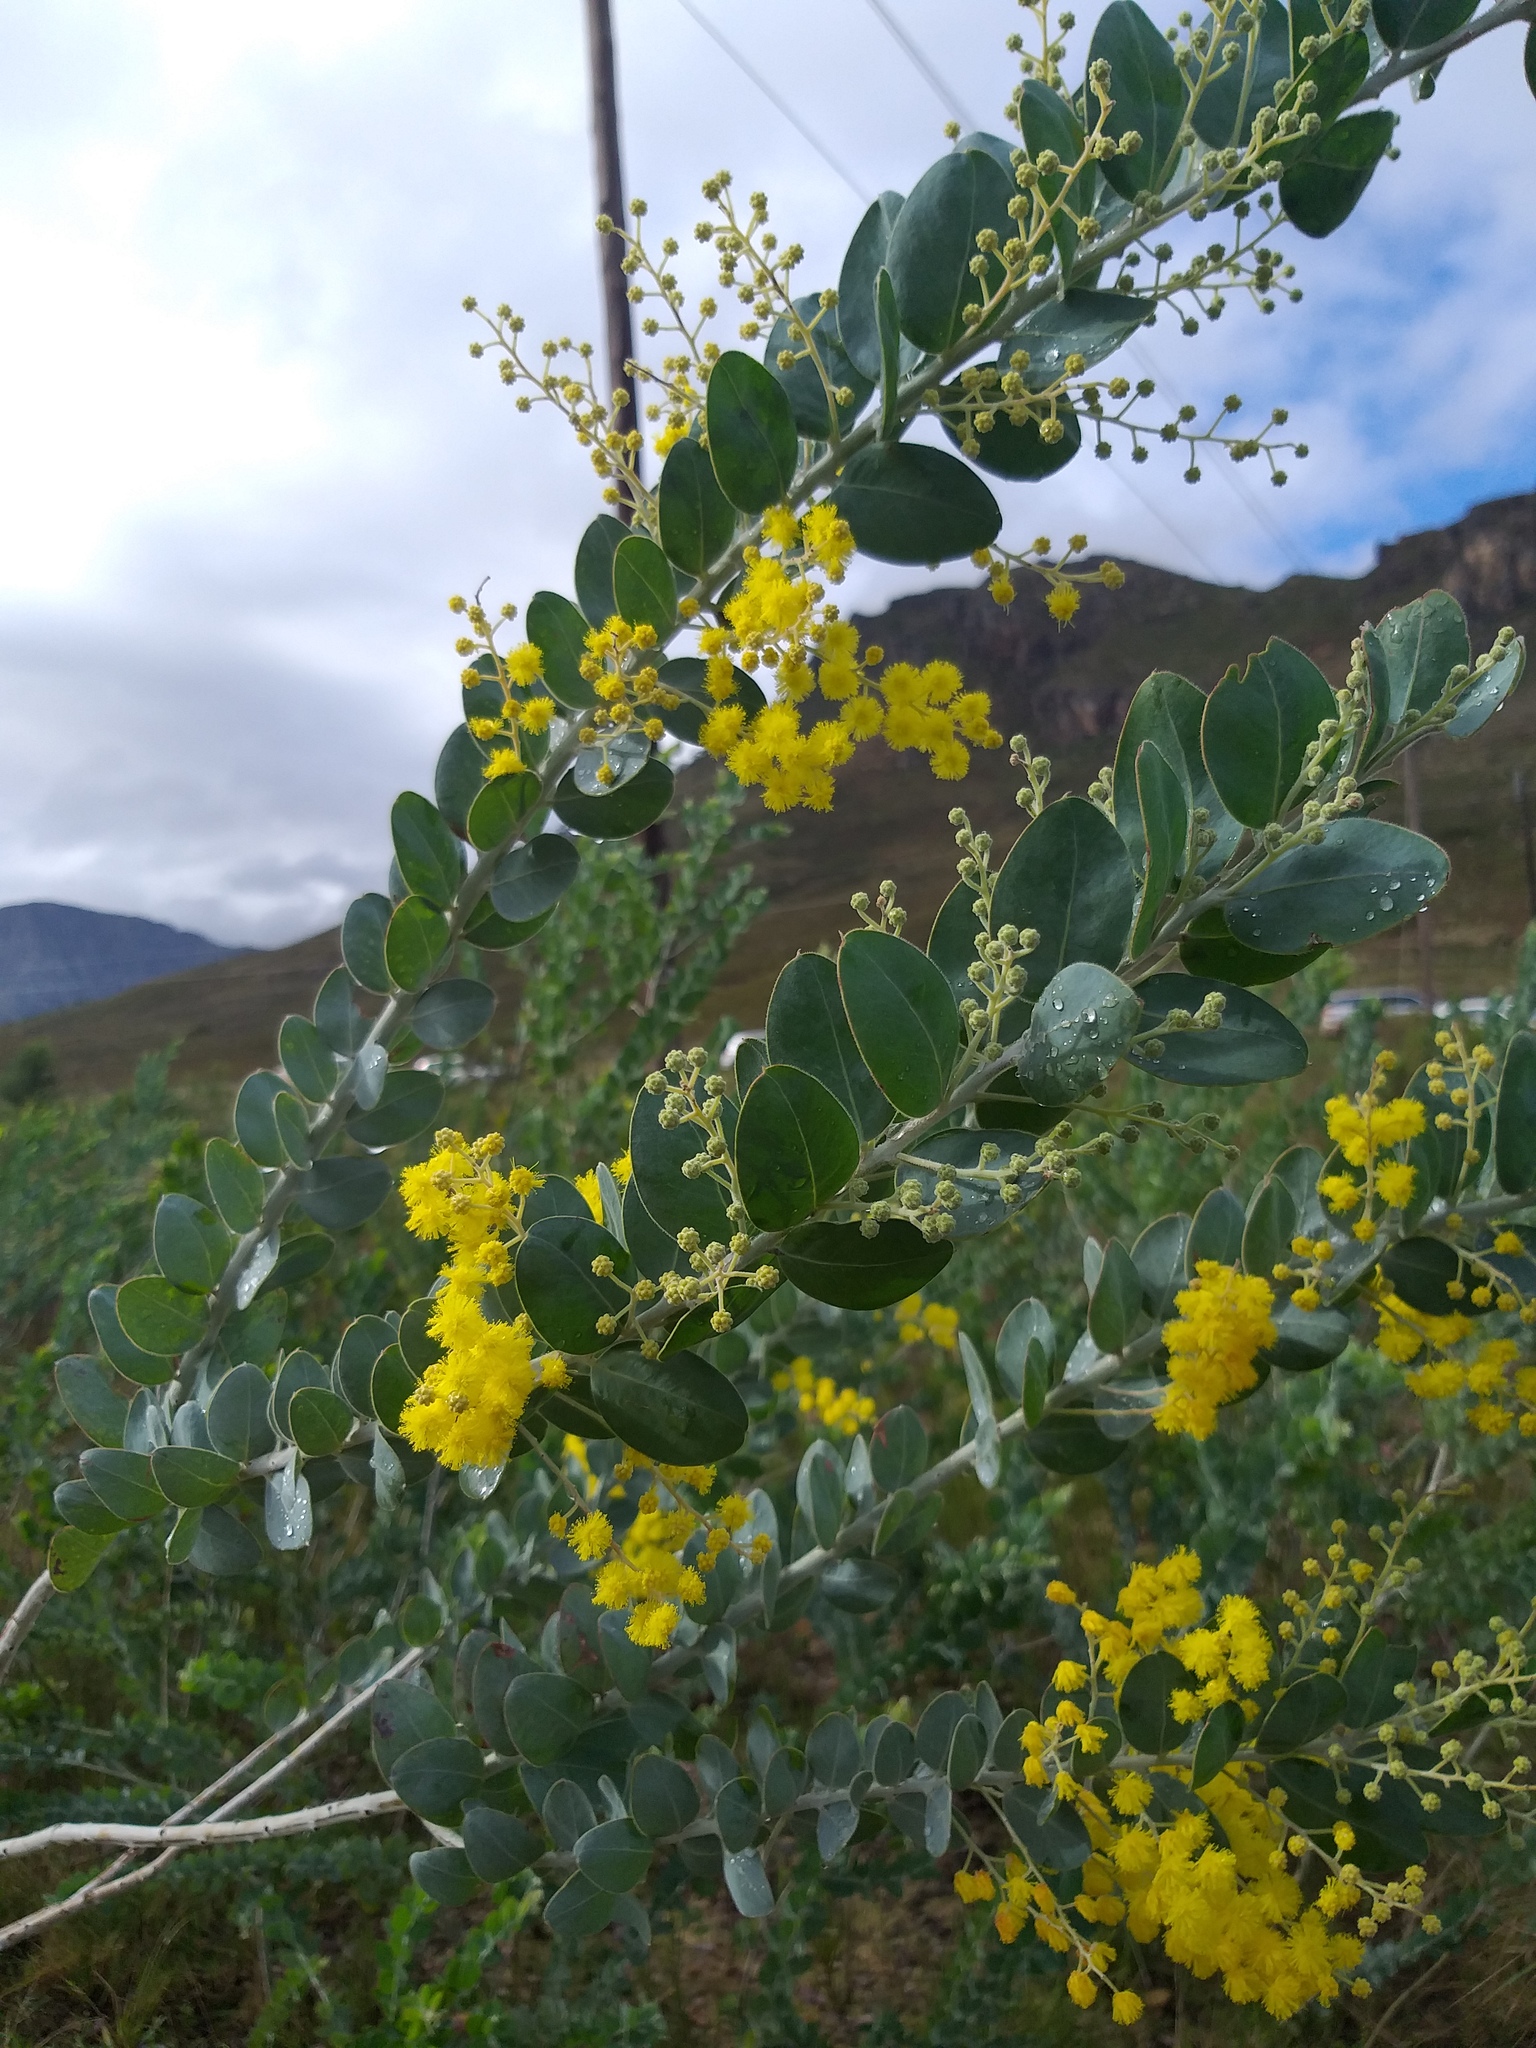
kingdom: Plantae
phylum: Tracheophyta
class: Magnoliopsida
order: Fabales
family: Fabaceae
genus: Acacia
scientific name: Acacia podalyriifolia
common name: Pearl wattle
